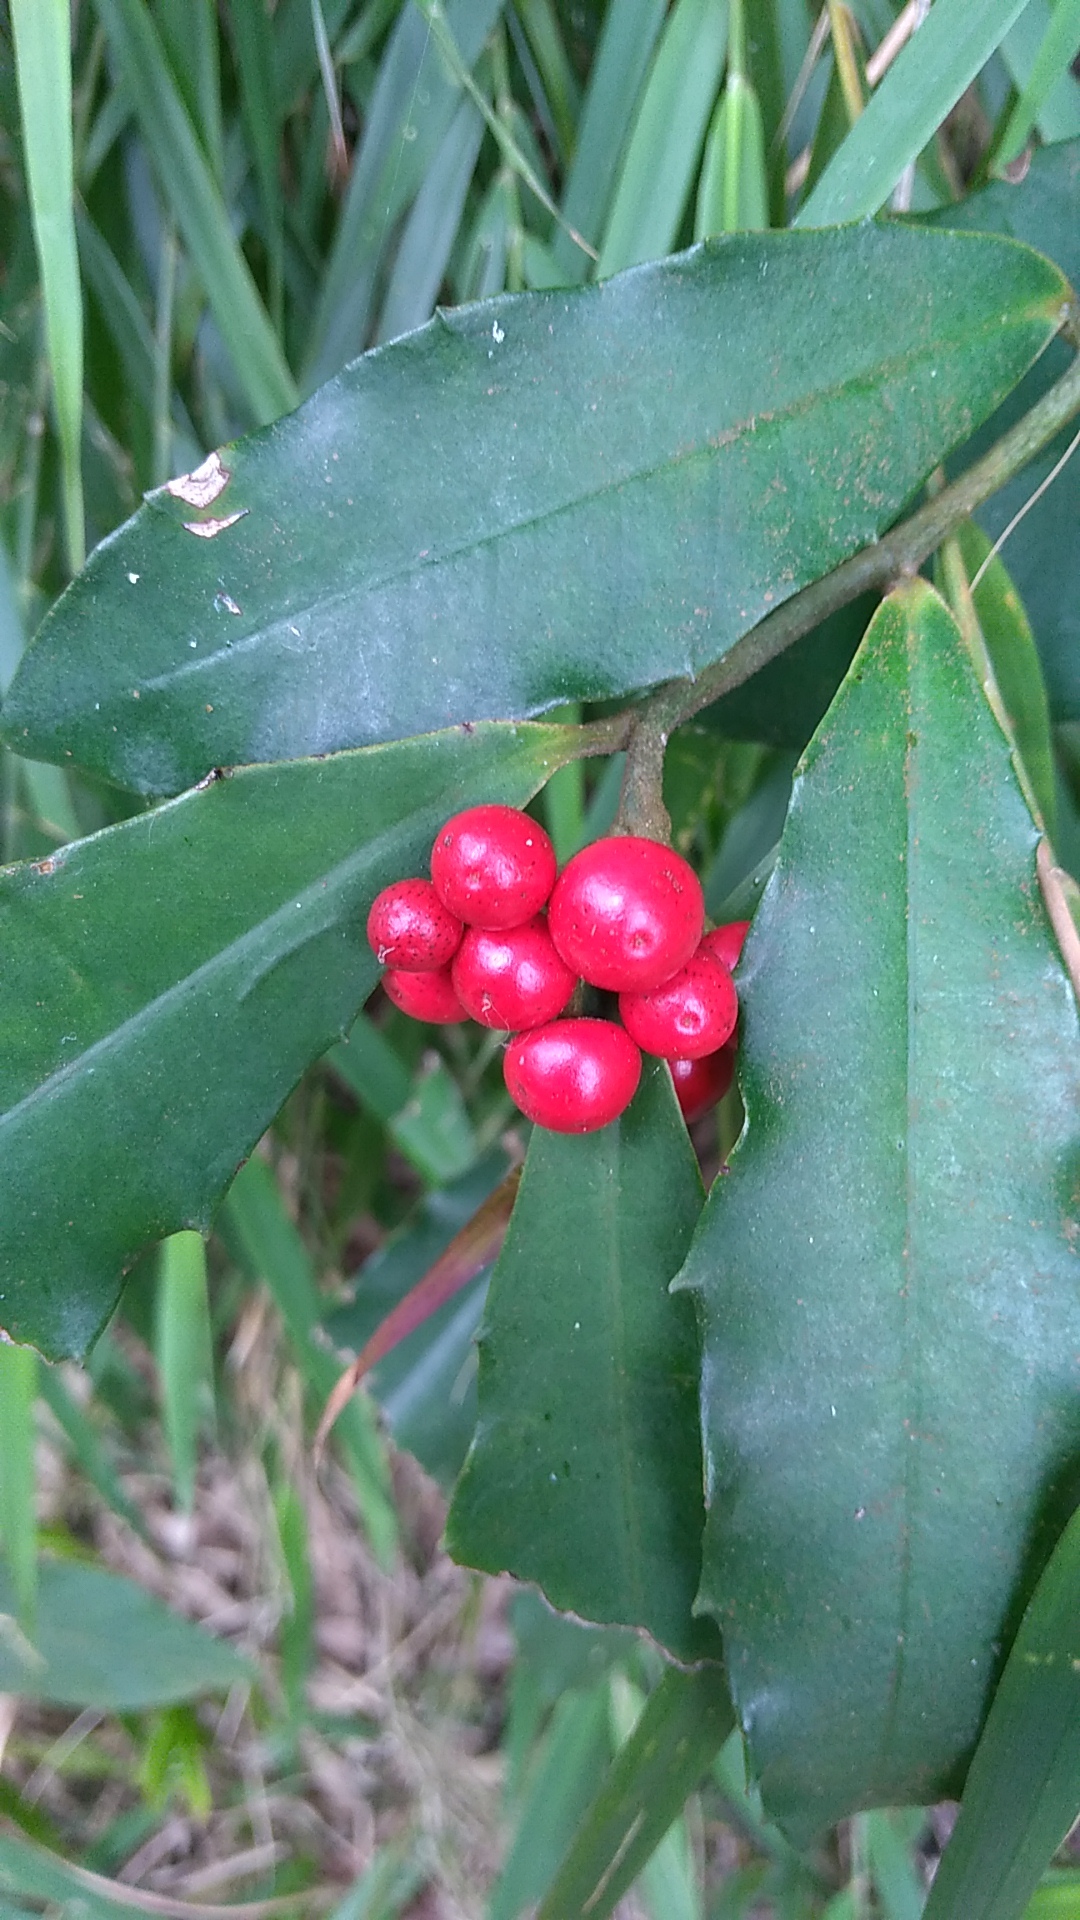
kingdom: Plantae
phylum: Tracheophyta
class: Magnoliopsida
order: Ericales
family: Primulaceae
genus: Ardisia
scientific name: Ardisia cornudentata
